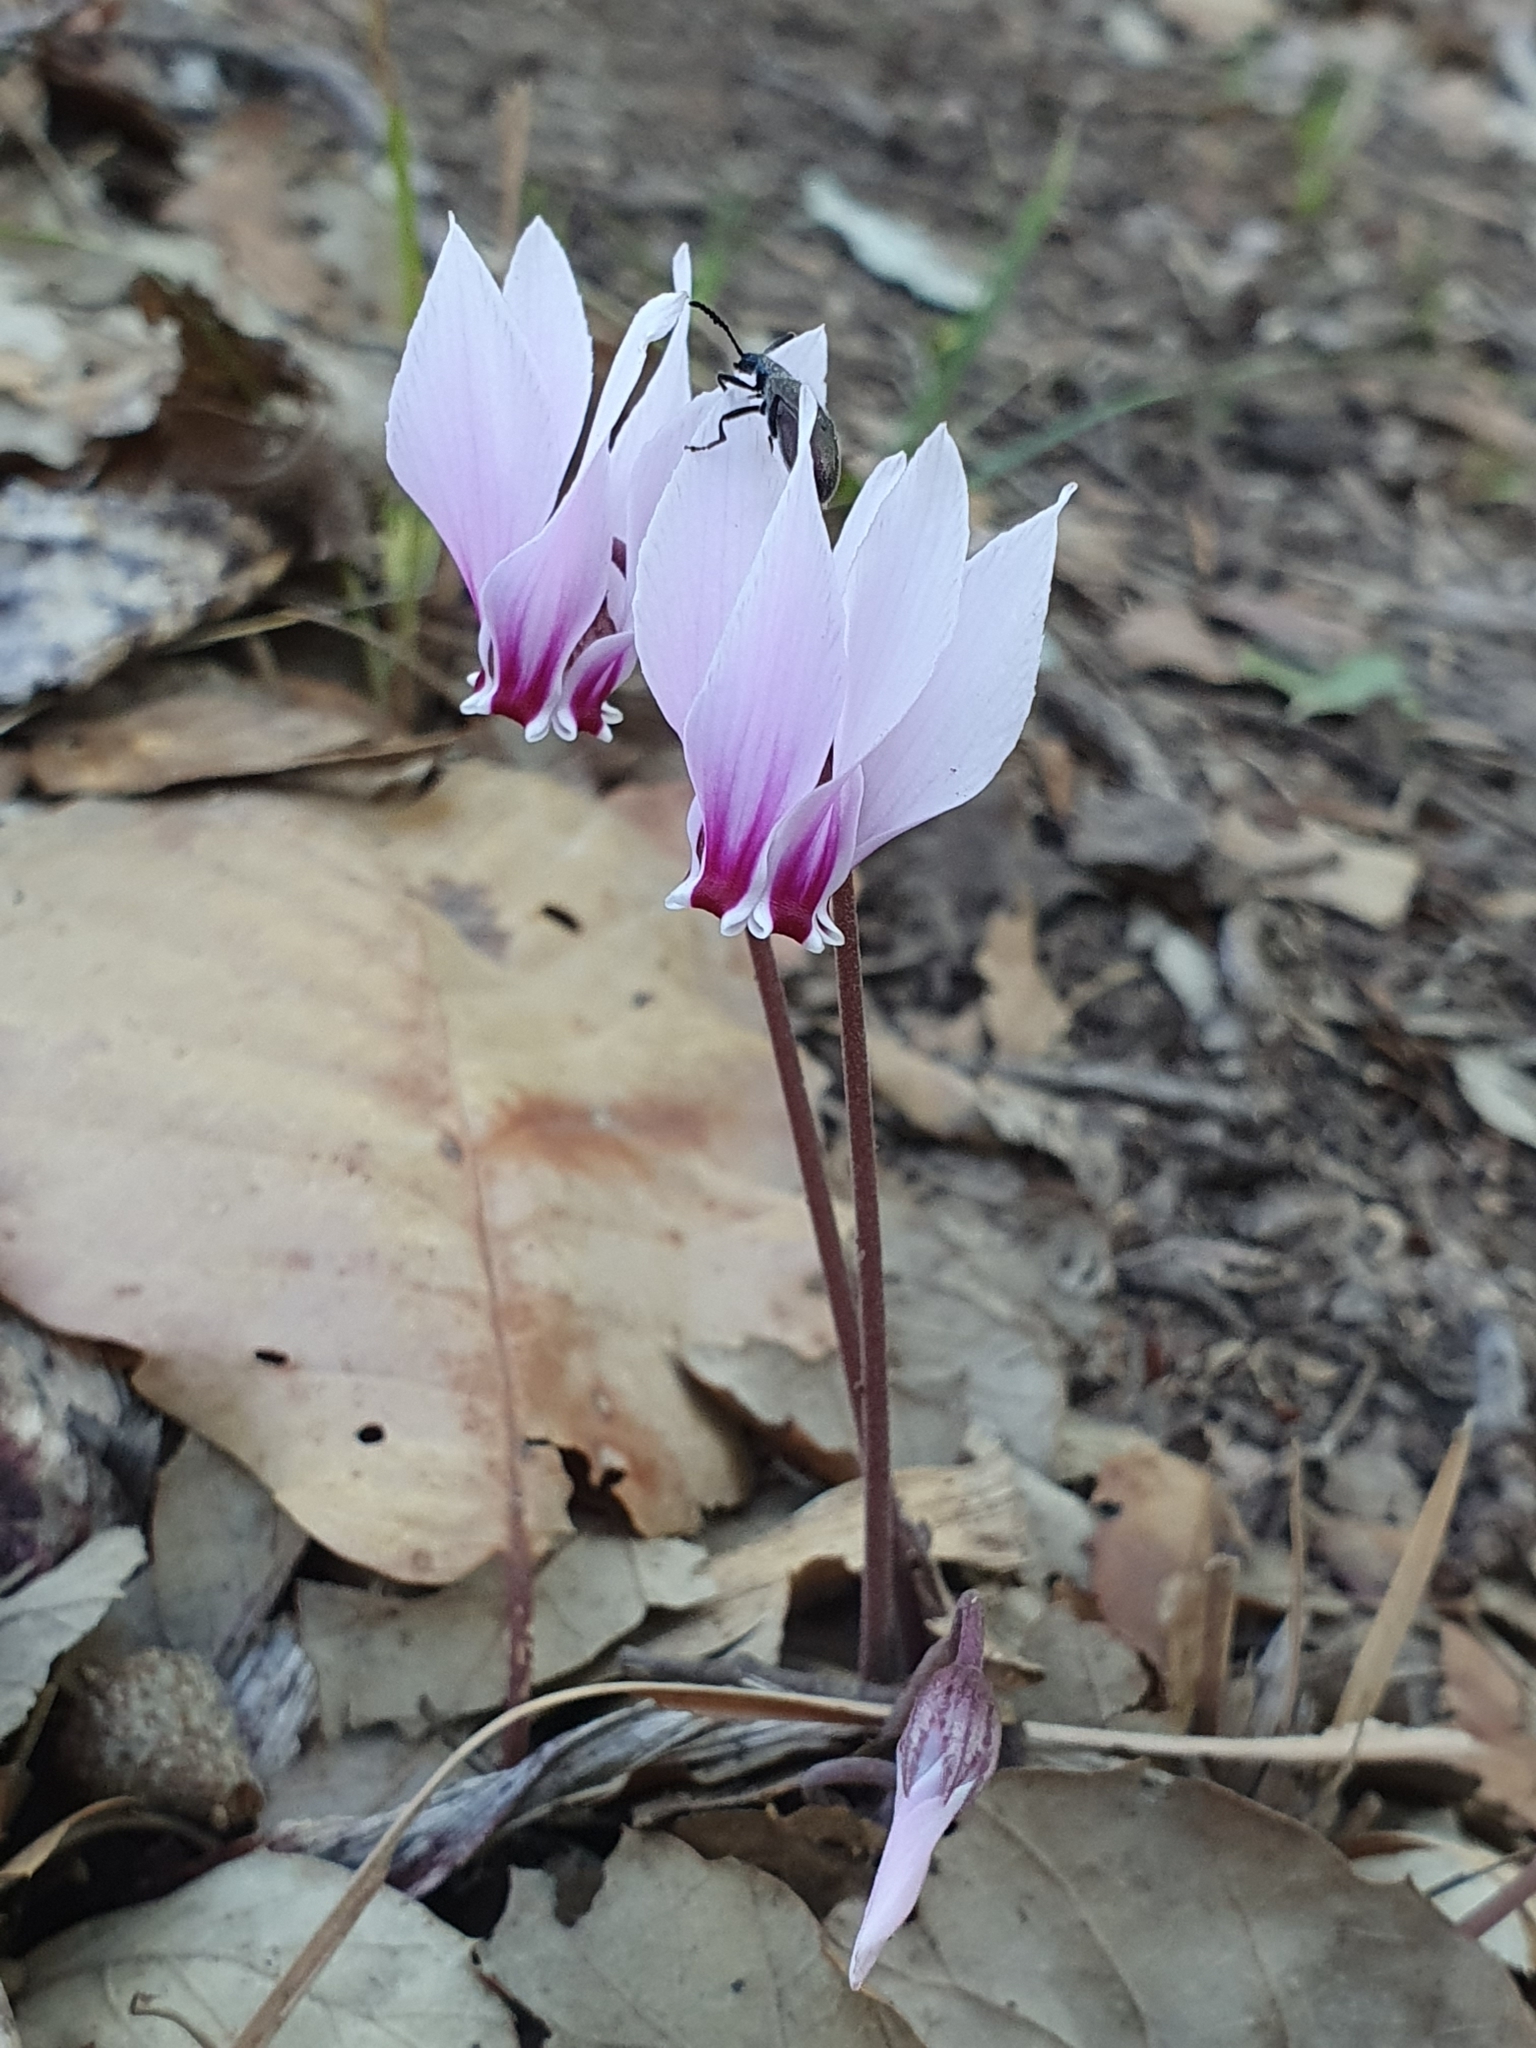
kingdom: Plantae
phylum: Tracheophyta
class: Magnoliopsida
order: Ericales
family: Primulaceae
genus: Cyclamen
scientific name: Cyclamen africanum
